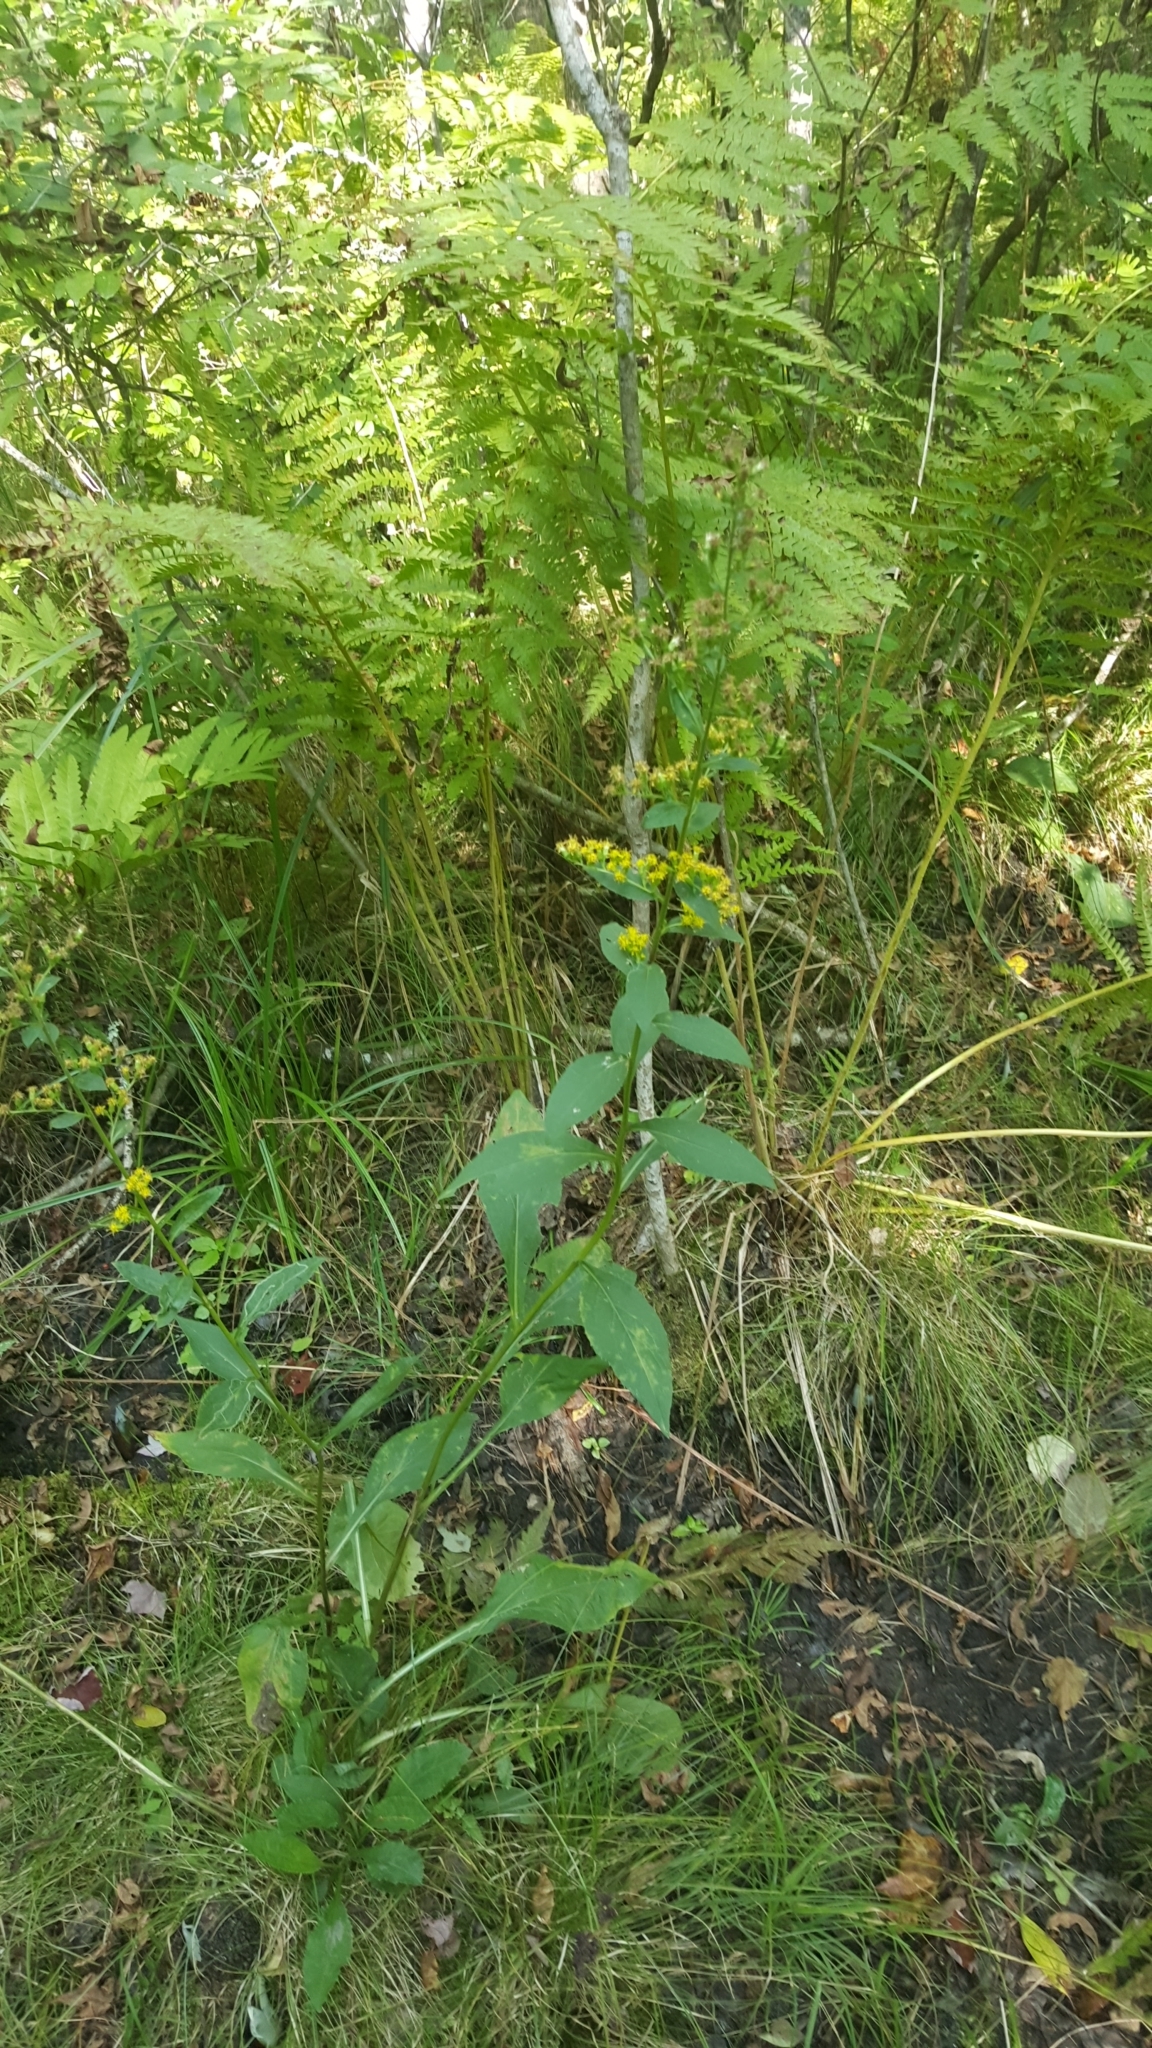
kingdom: Plantae
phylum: Tracheophyta
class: Magnoliopsida
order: Asterales
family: Asteraceae
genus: Solidago
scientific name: Solidago patula
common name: Rough-leaf goldenrod
